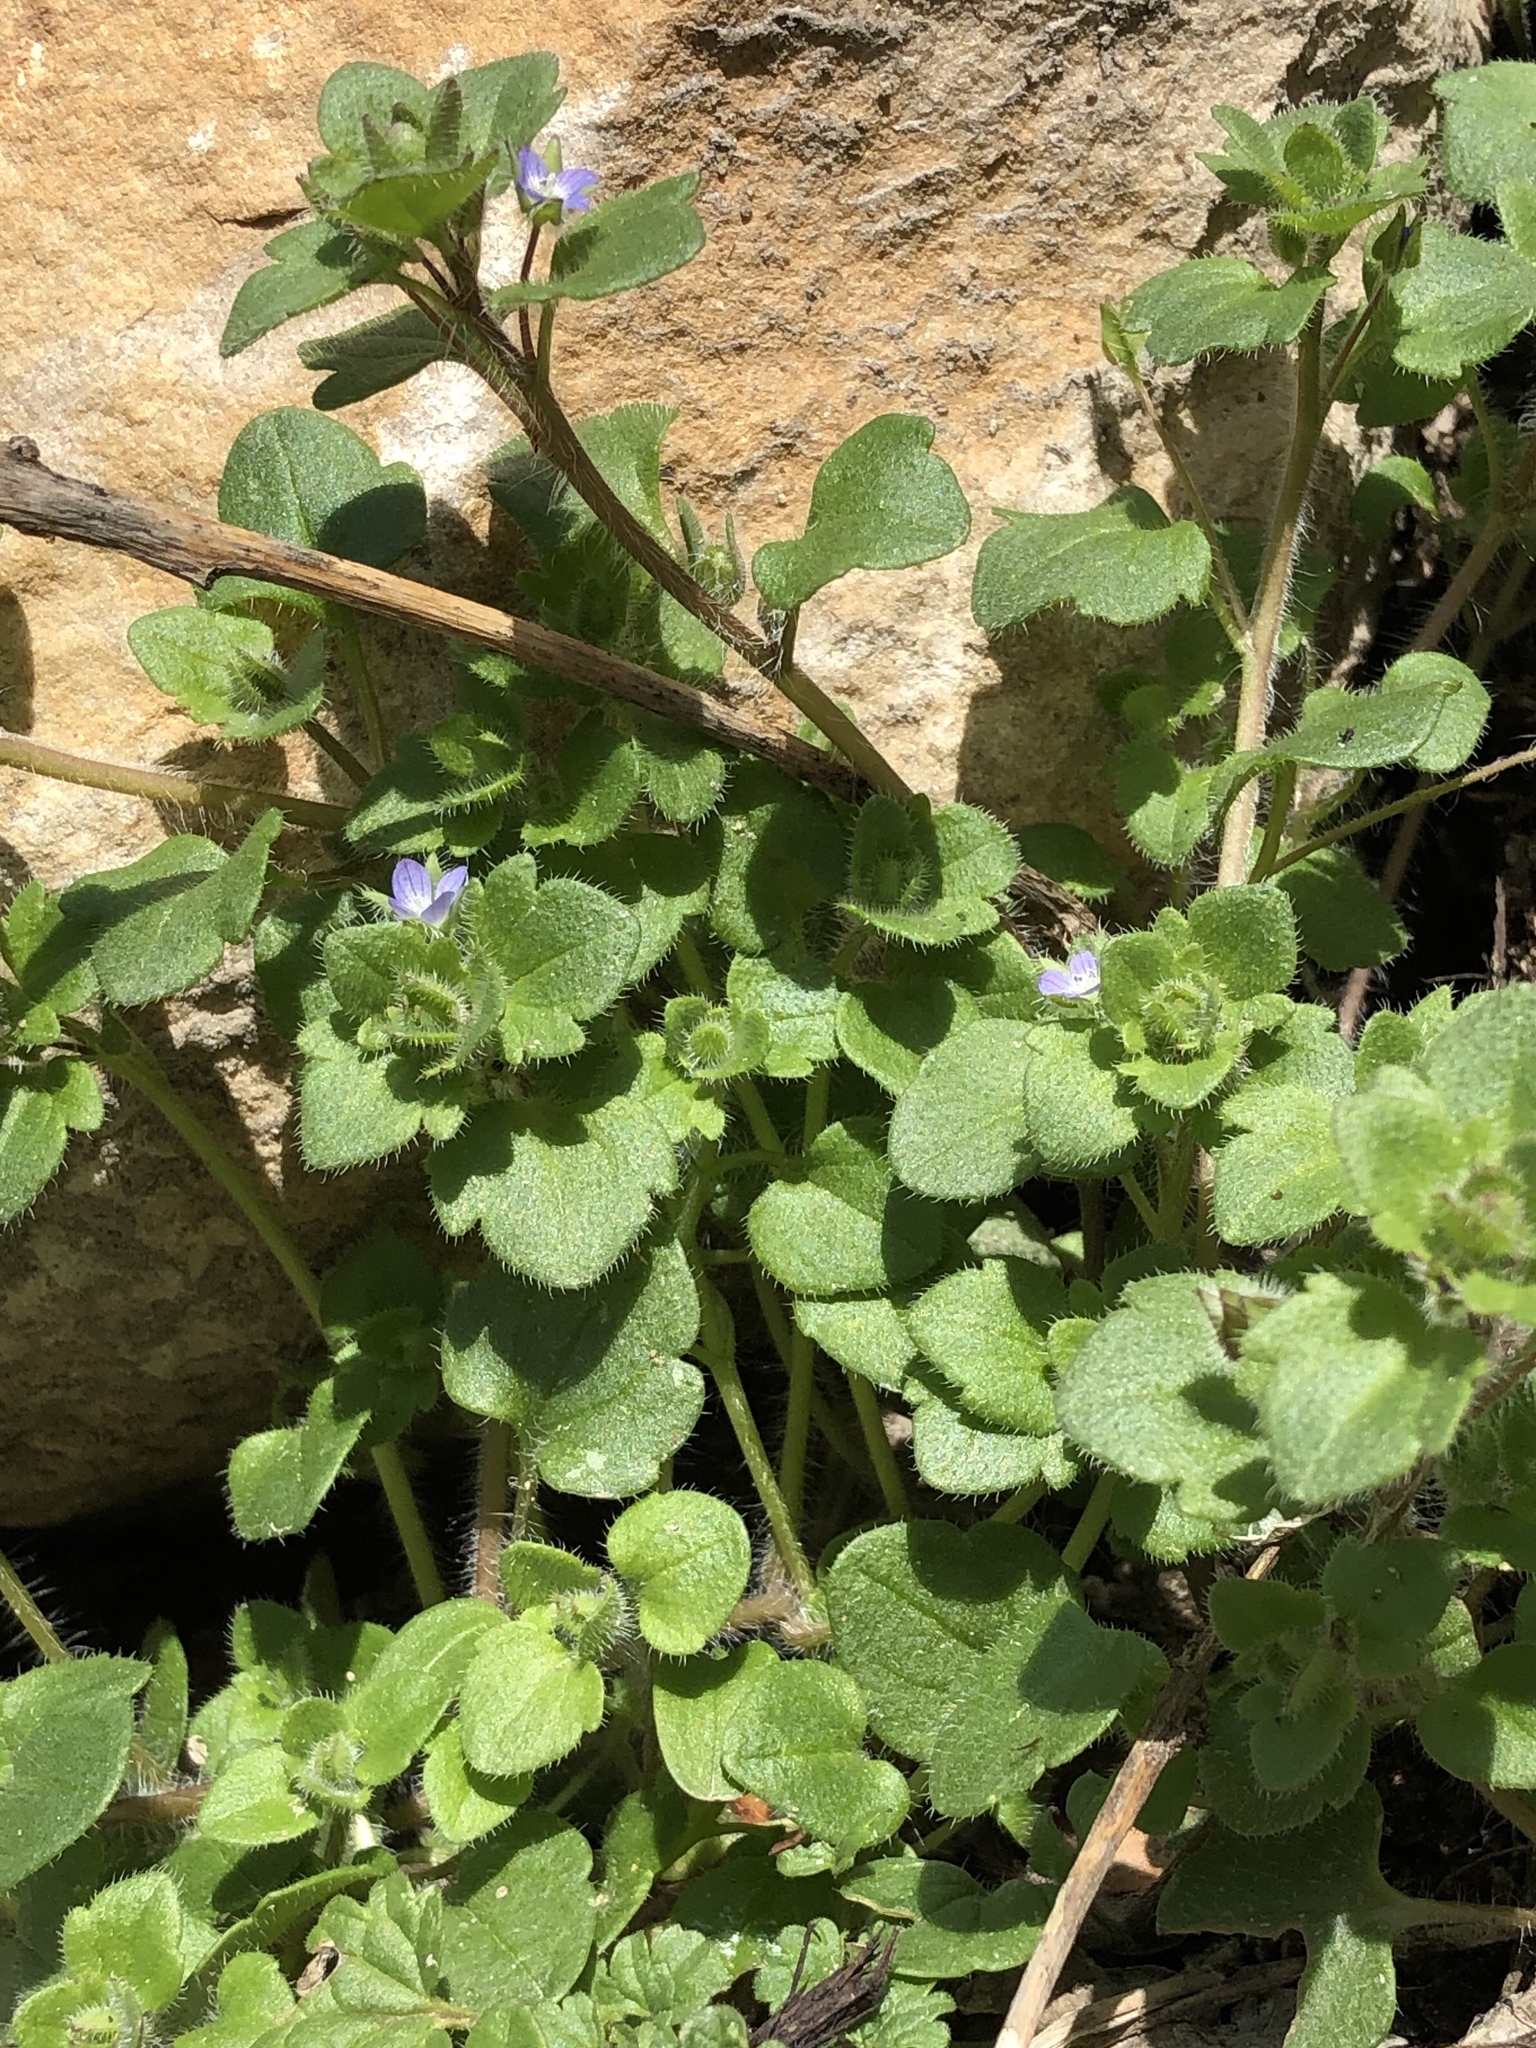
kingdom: Plantae
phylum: Tracheophyta
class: Magnoliopsida
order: Lamiales
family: Plantaginaceae
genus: Veronica
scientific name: Veronica hederifolia
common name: Ivy-leaved speedwell
